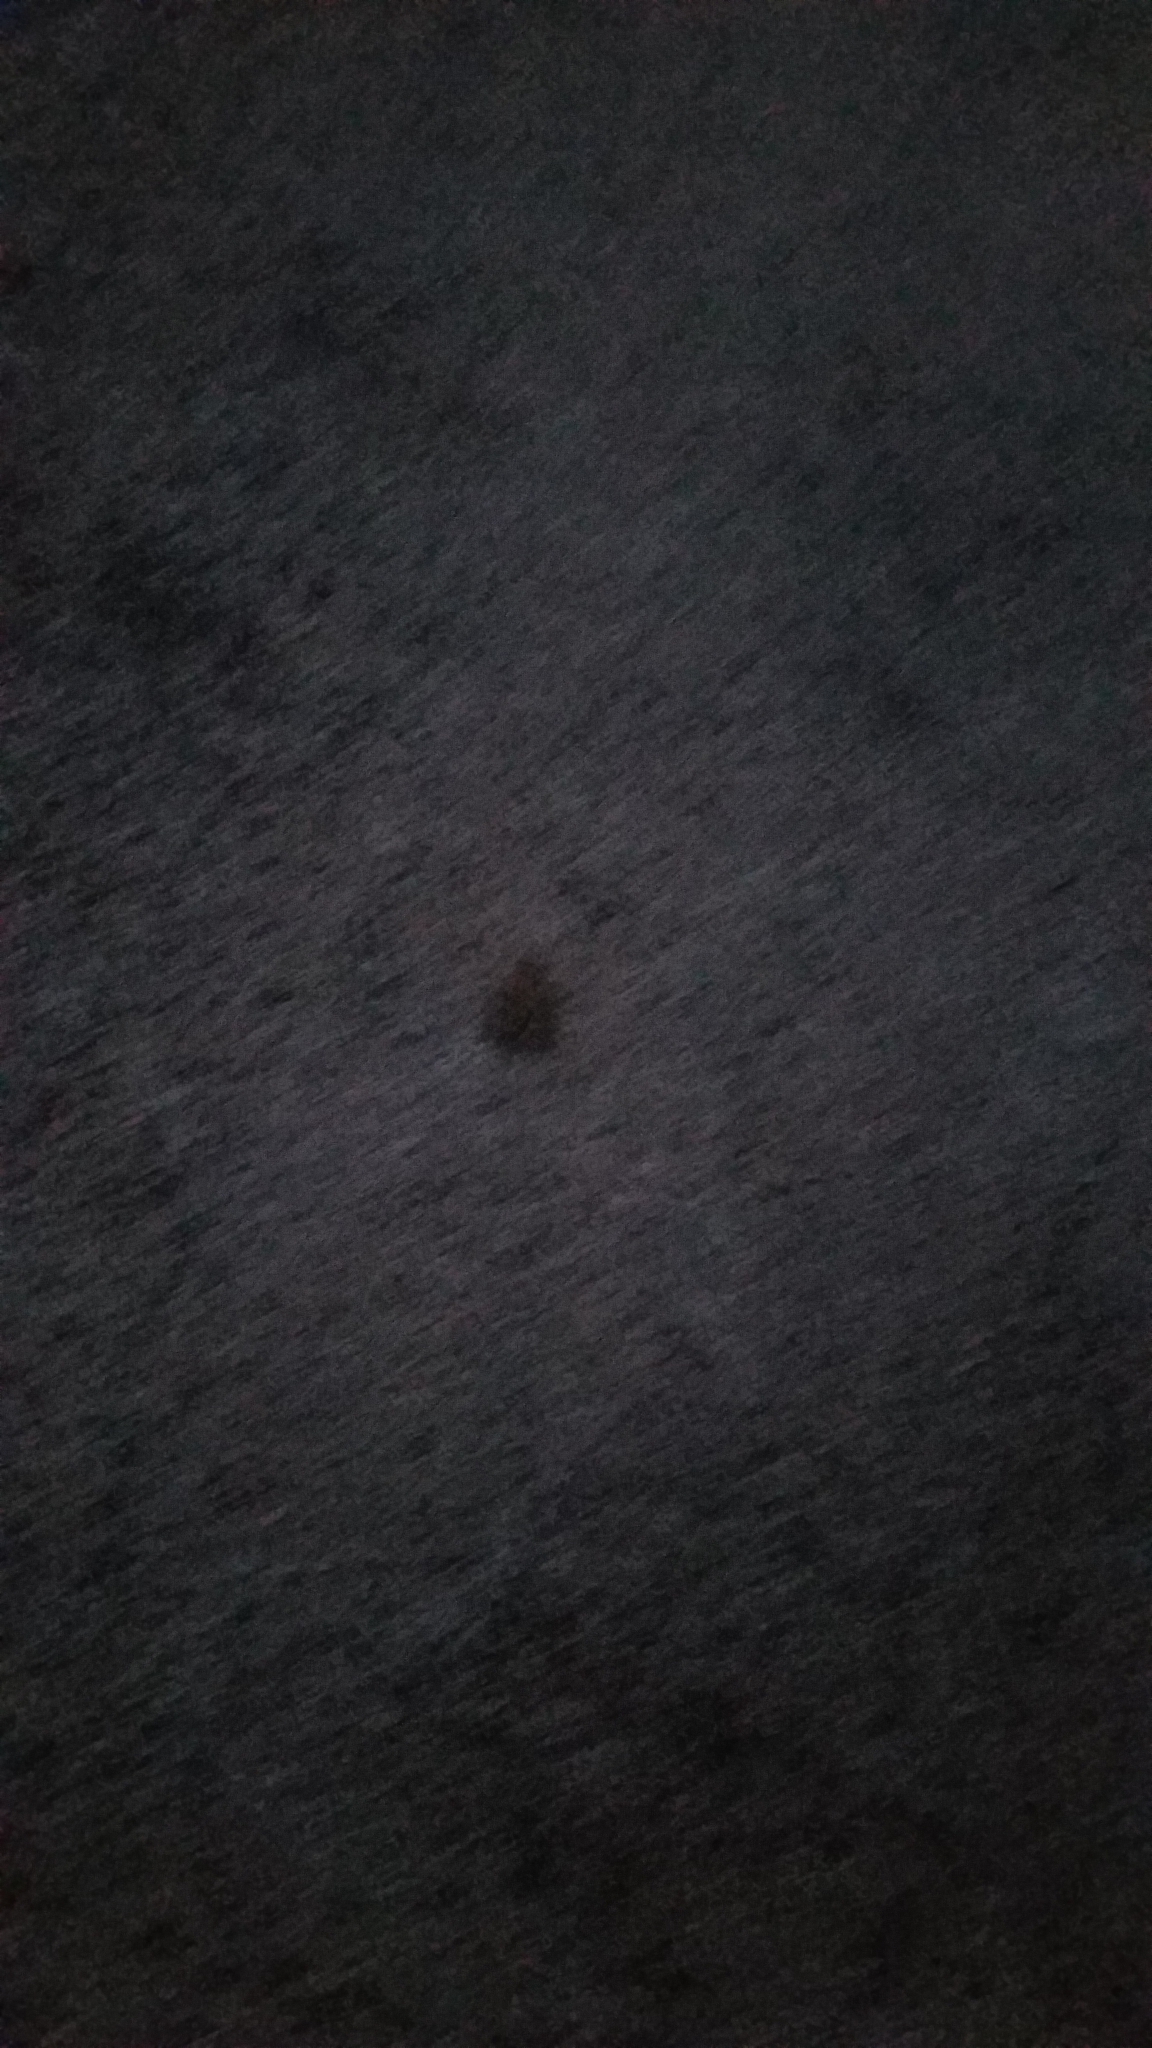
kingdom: Animalia
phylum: Chordata
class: Amphibia
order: Anura
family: Bufonidae
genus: Anaxyrus
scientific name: Anaxyrus americanus
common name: American toad
